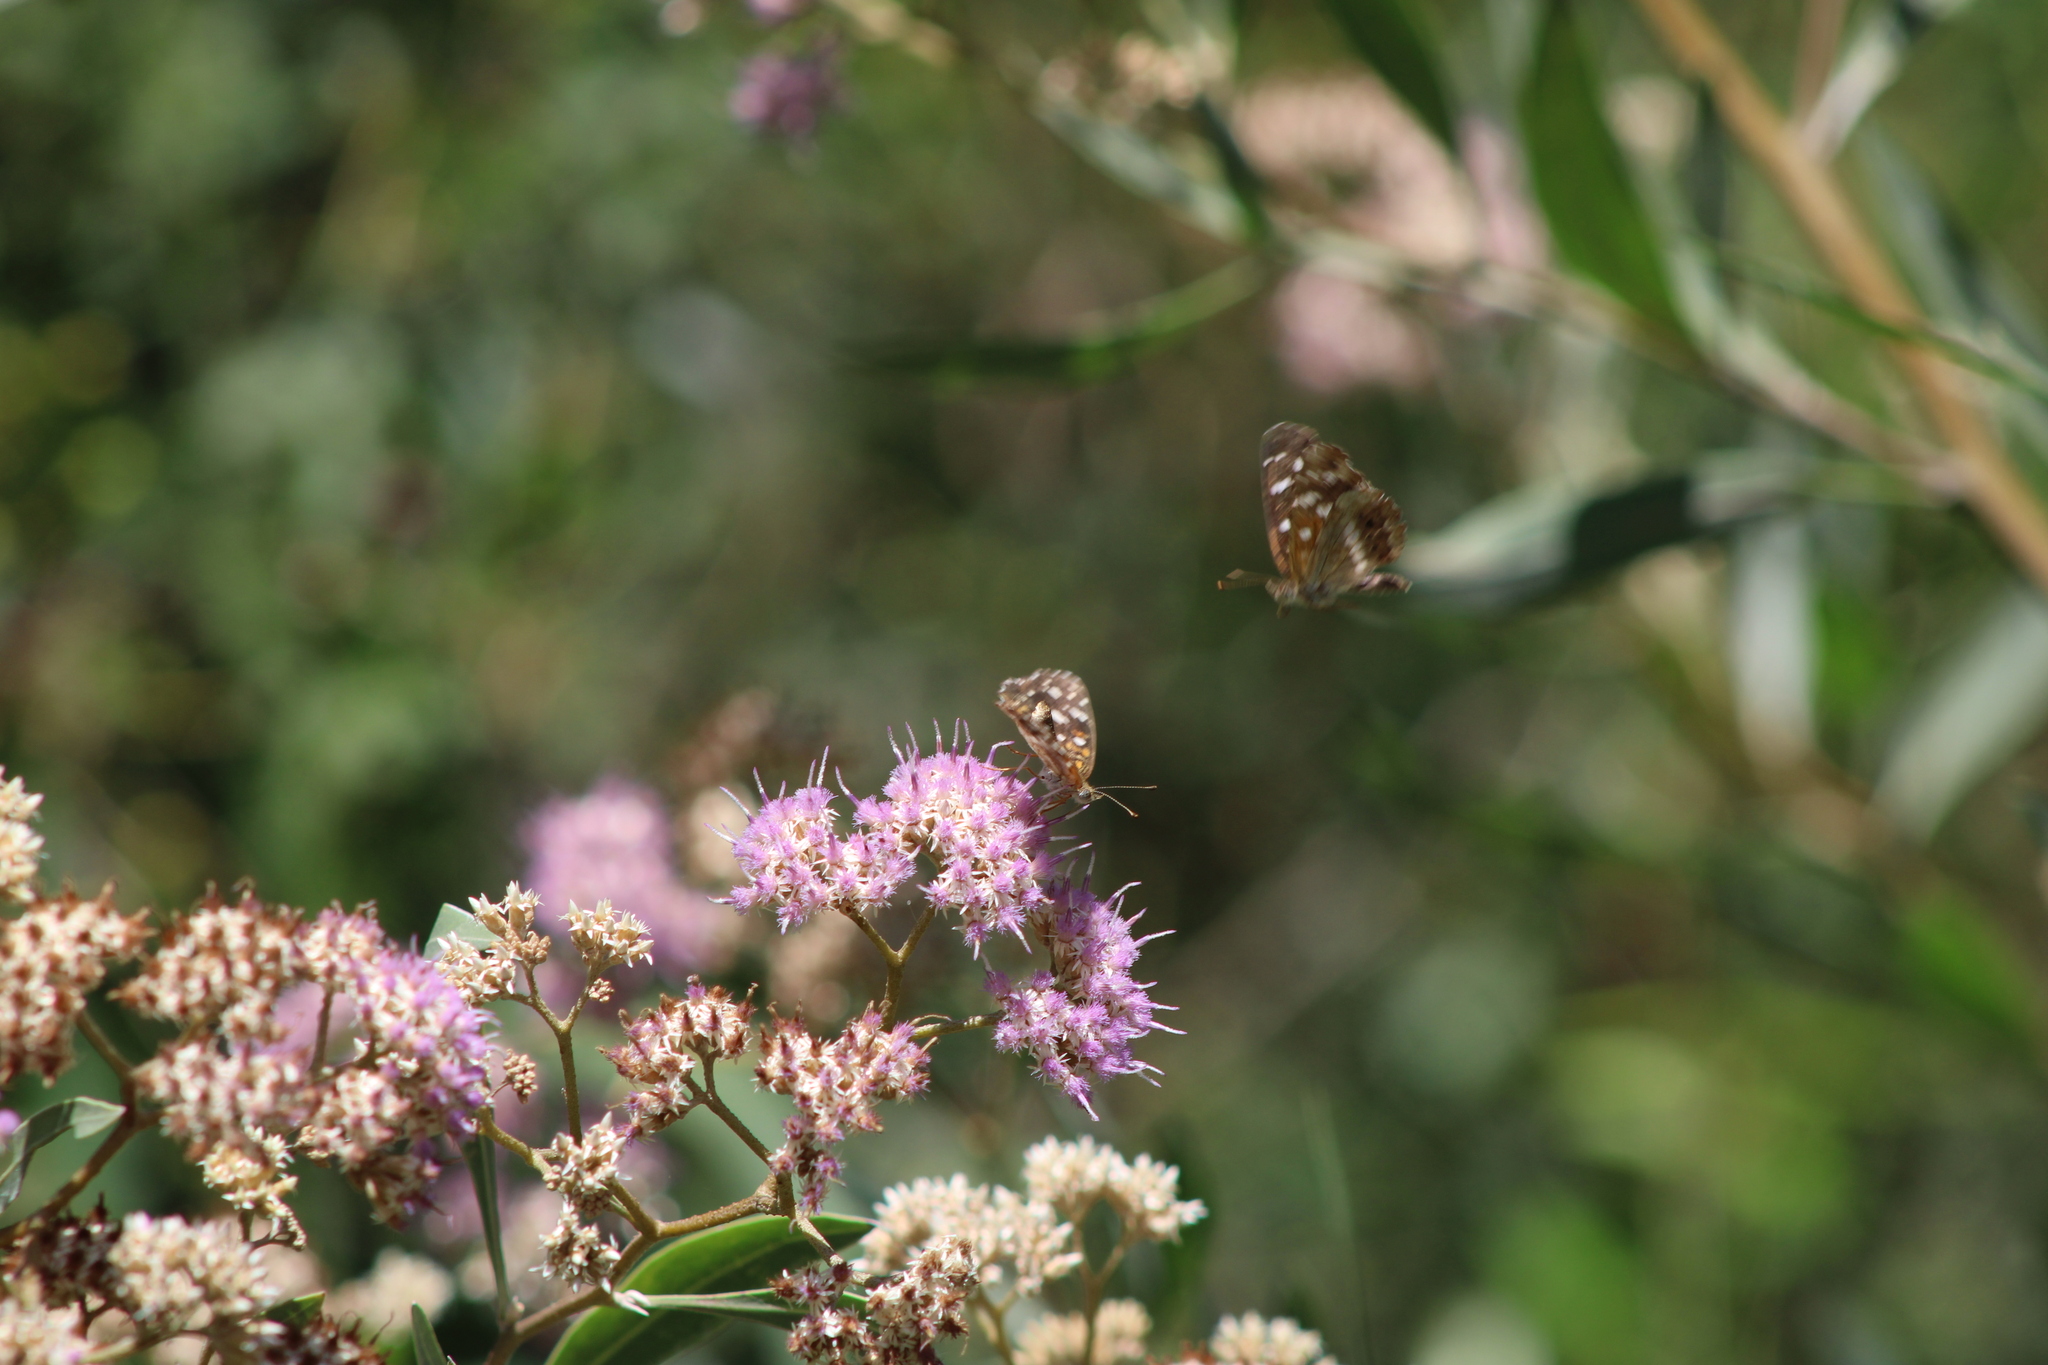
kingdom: Animalia
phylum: Arthropoda
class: Insecta
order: Lepidoptera
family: Nymphalidae
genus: Ortilia
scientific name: Ortilia ithra
